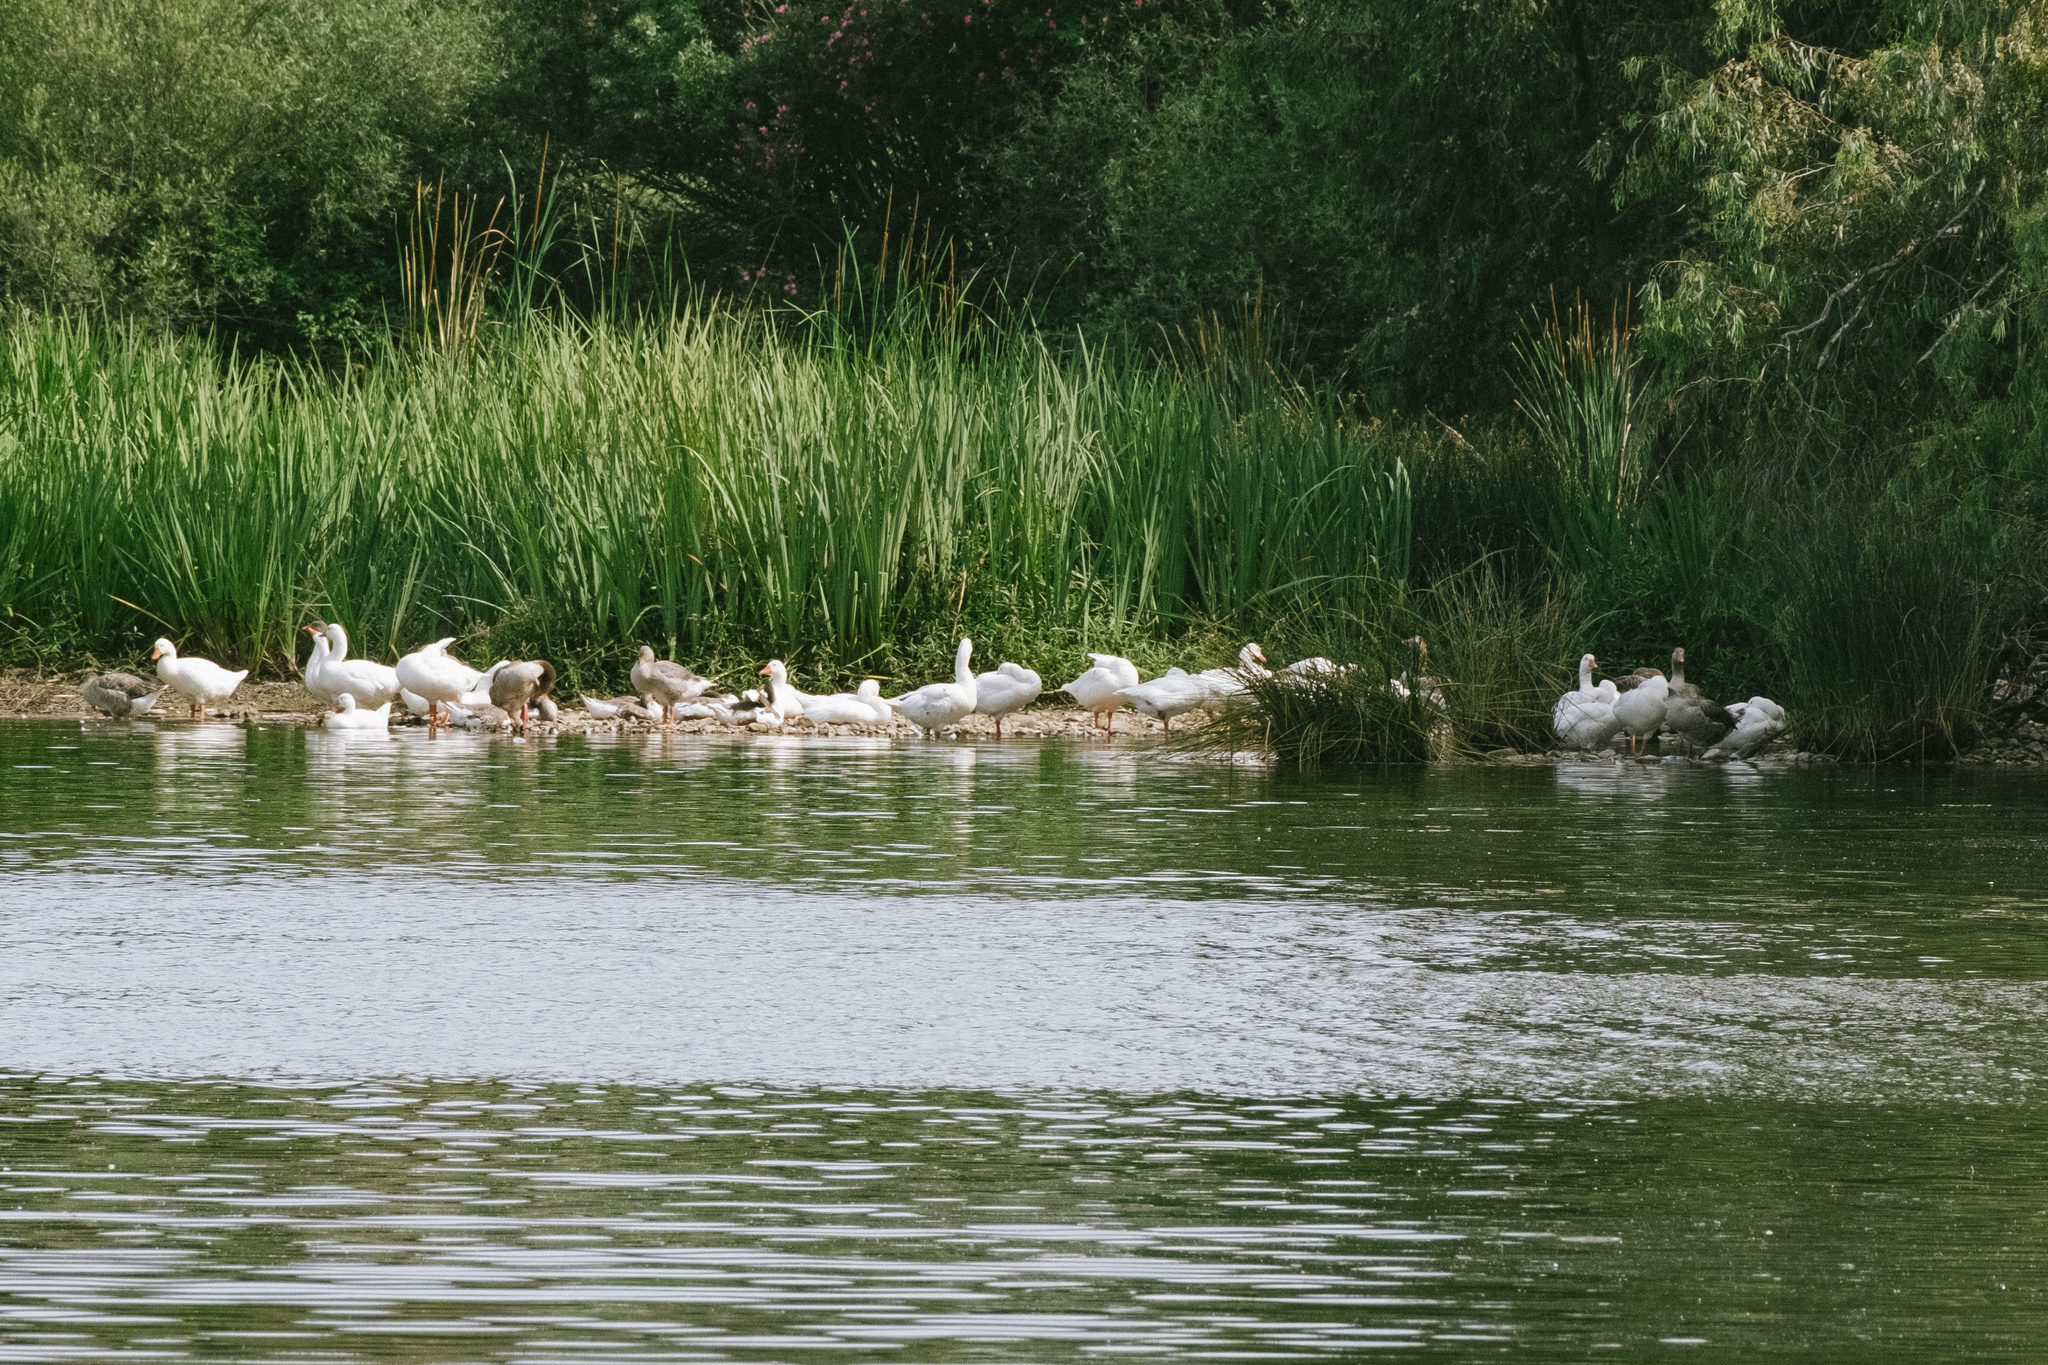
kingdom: Animalia
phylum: Chordata
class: Aves
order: Anseriformes
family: Anatidae
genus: Anser
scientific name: Anser anser
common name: Greylag goose
